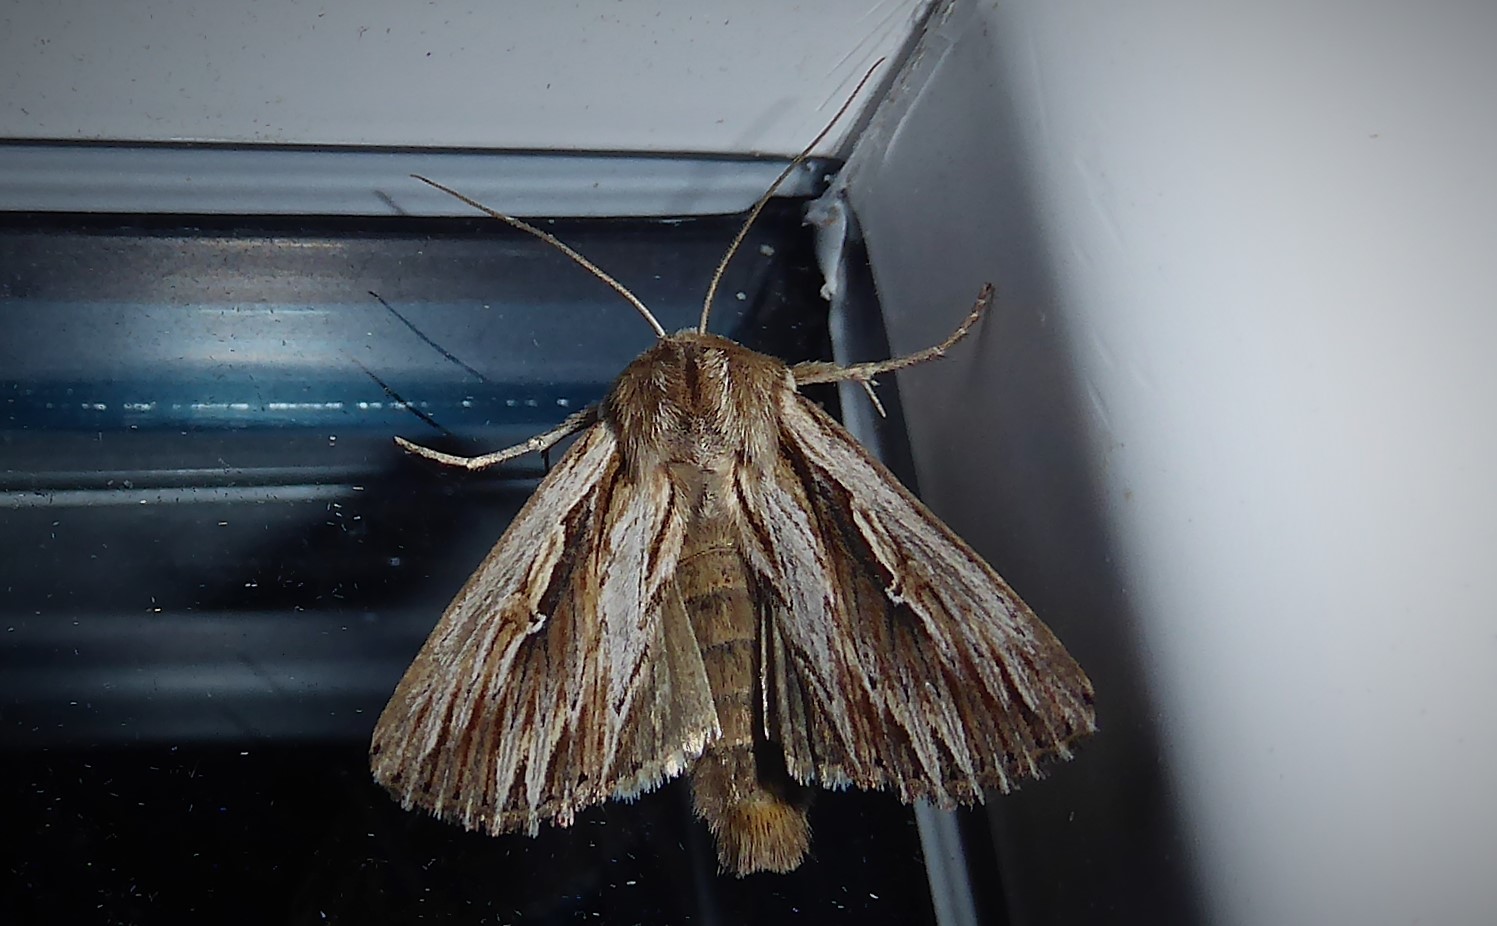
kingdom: Animalia
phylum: Arthropoda
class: Insecta
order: Lepidoptera
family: Noctuidae
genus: Persectania
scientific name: Persectania aversa
